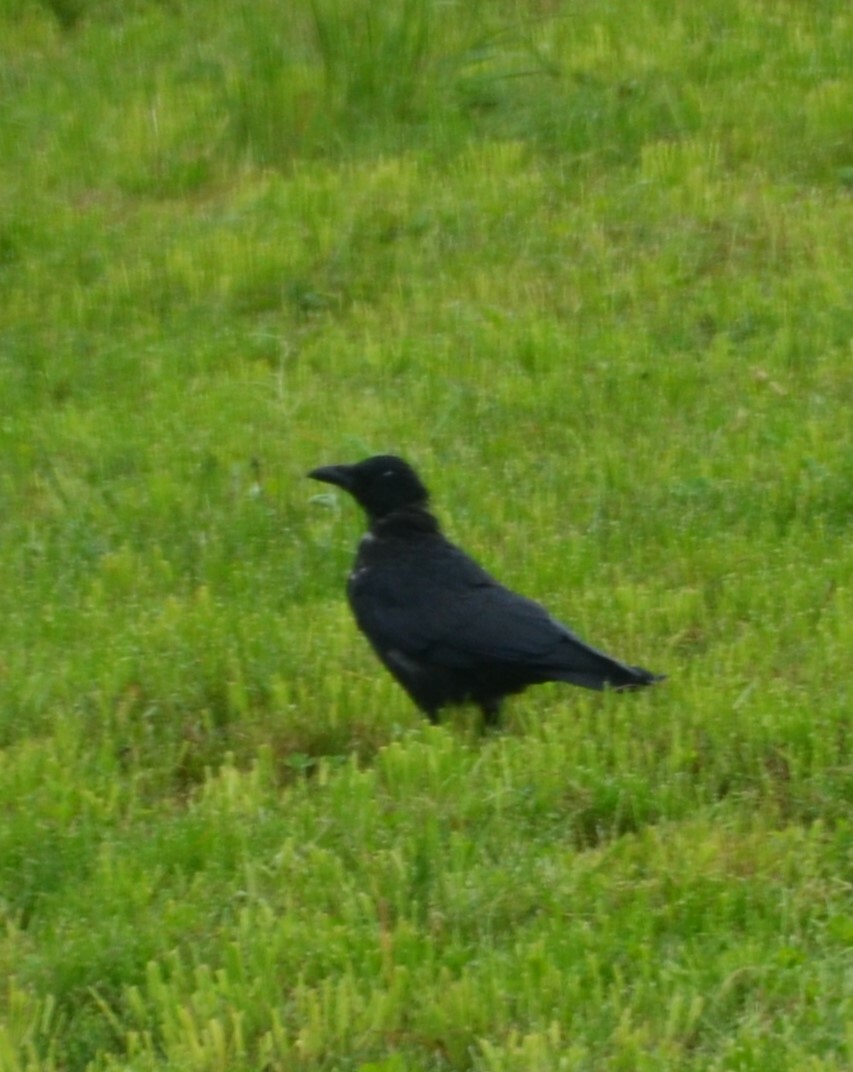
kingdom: Animalia
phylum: Chordata
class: Aves
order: Passeriformes
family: Corvidae
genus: Corvus
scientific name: Corvus
